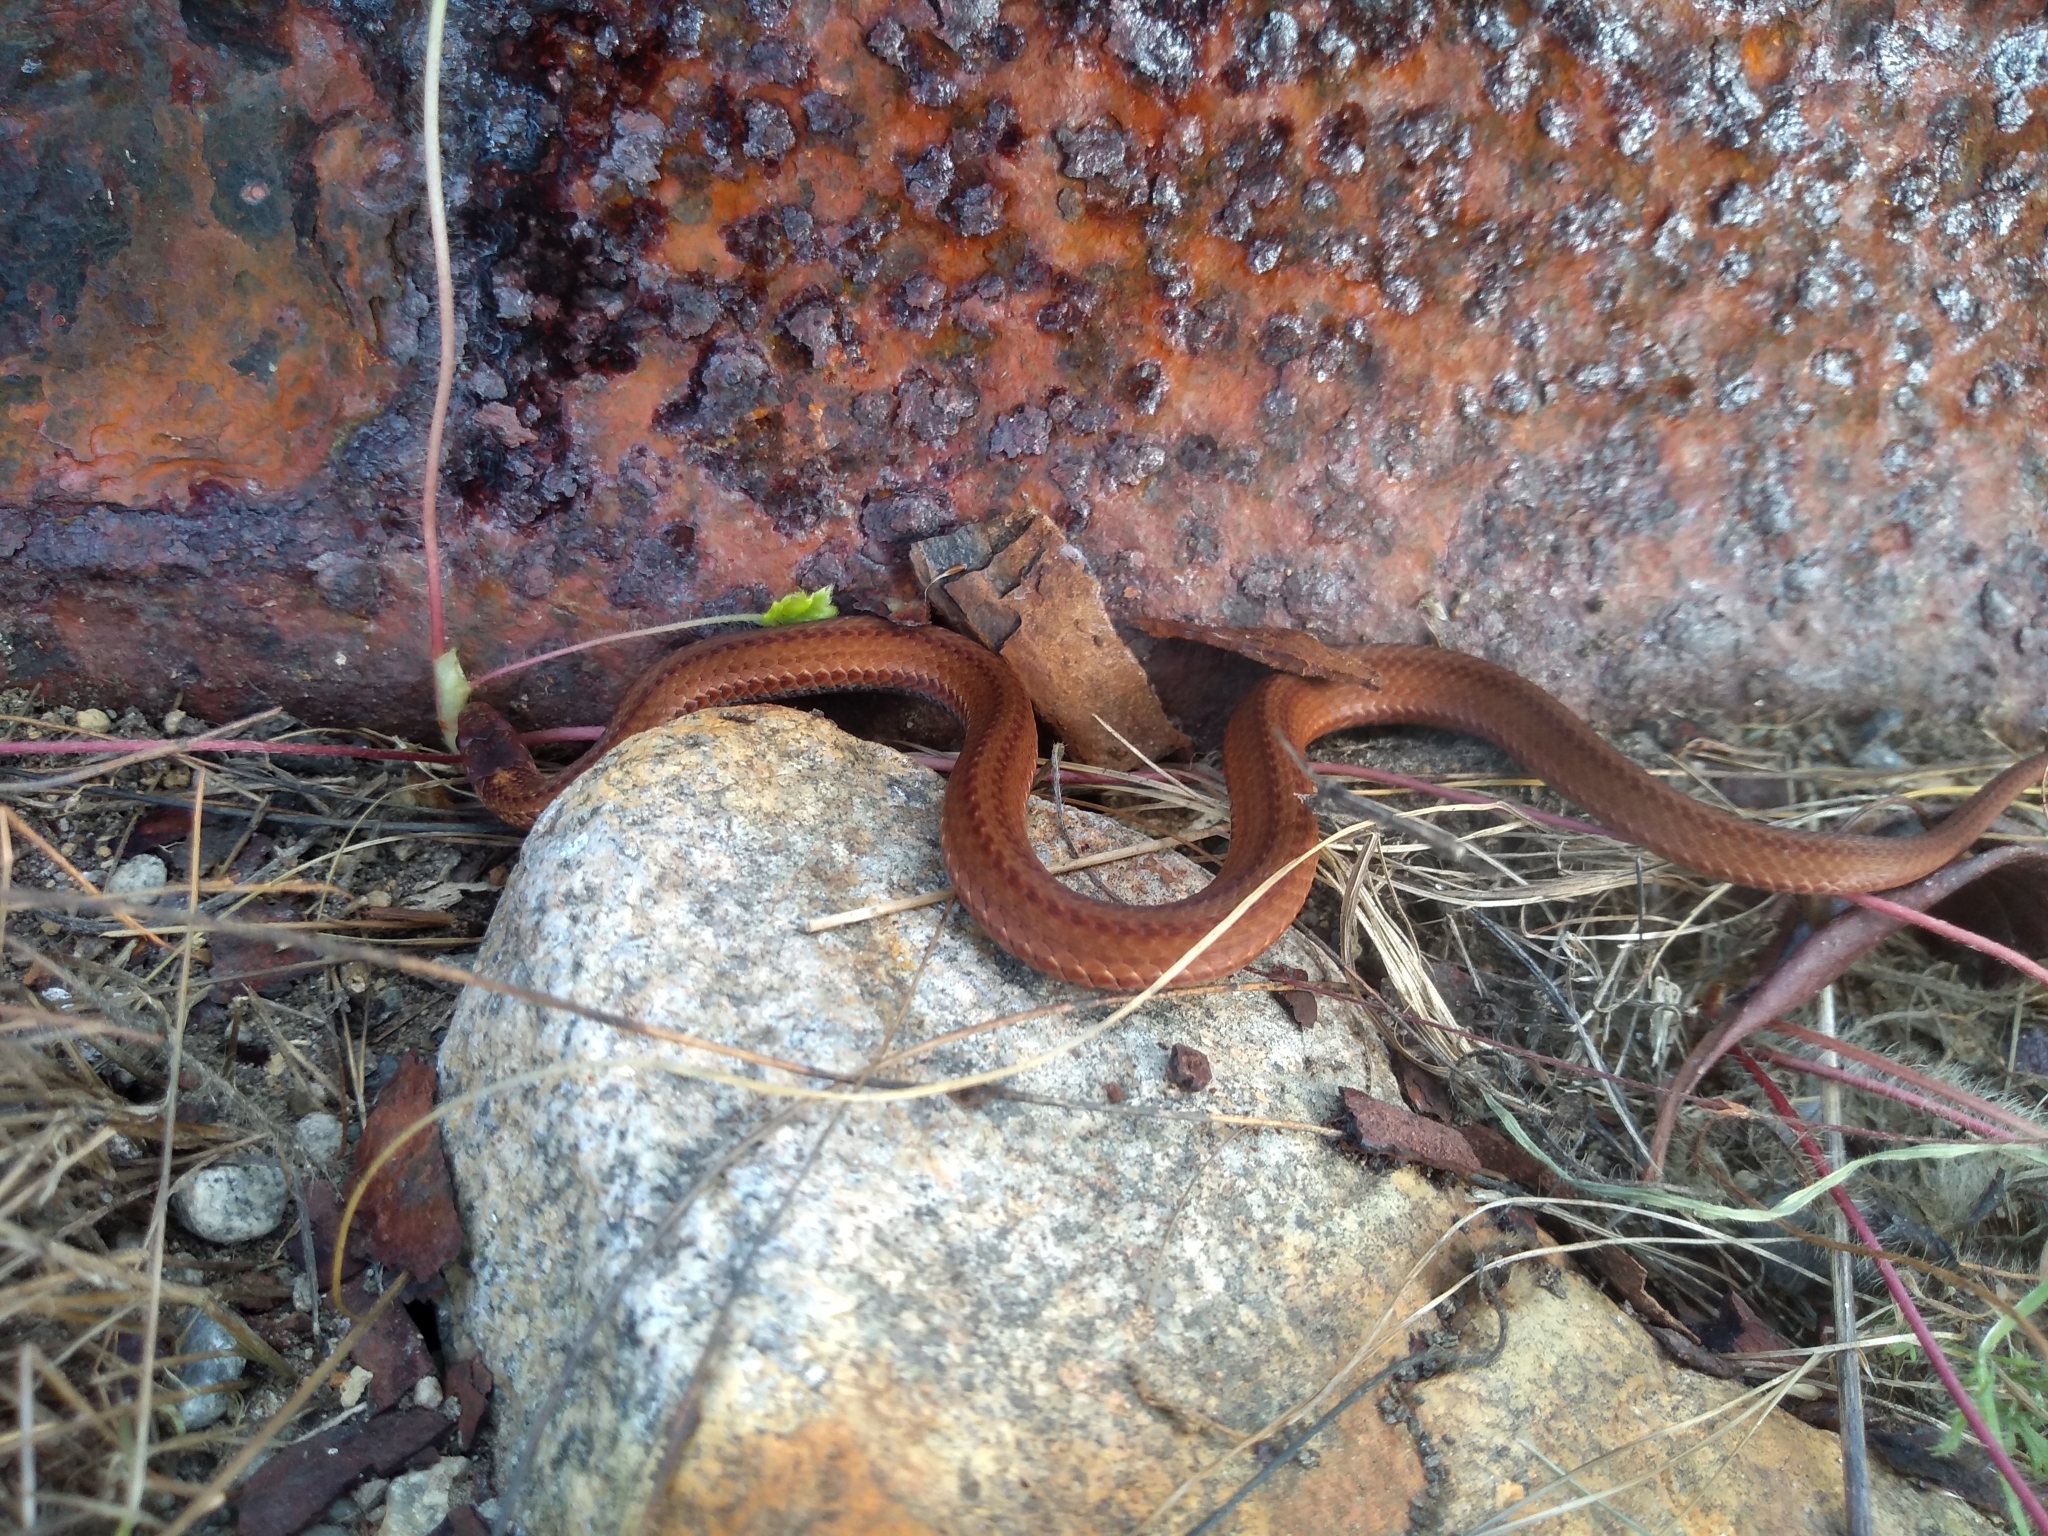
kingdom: Animalia
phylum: Chordata
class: Squamata
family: Colubridae
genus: Storeria
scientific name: Storeria occipitomaculata
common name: Redbelly snake
